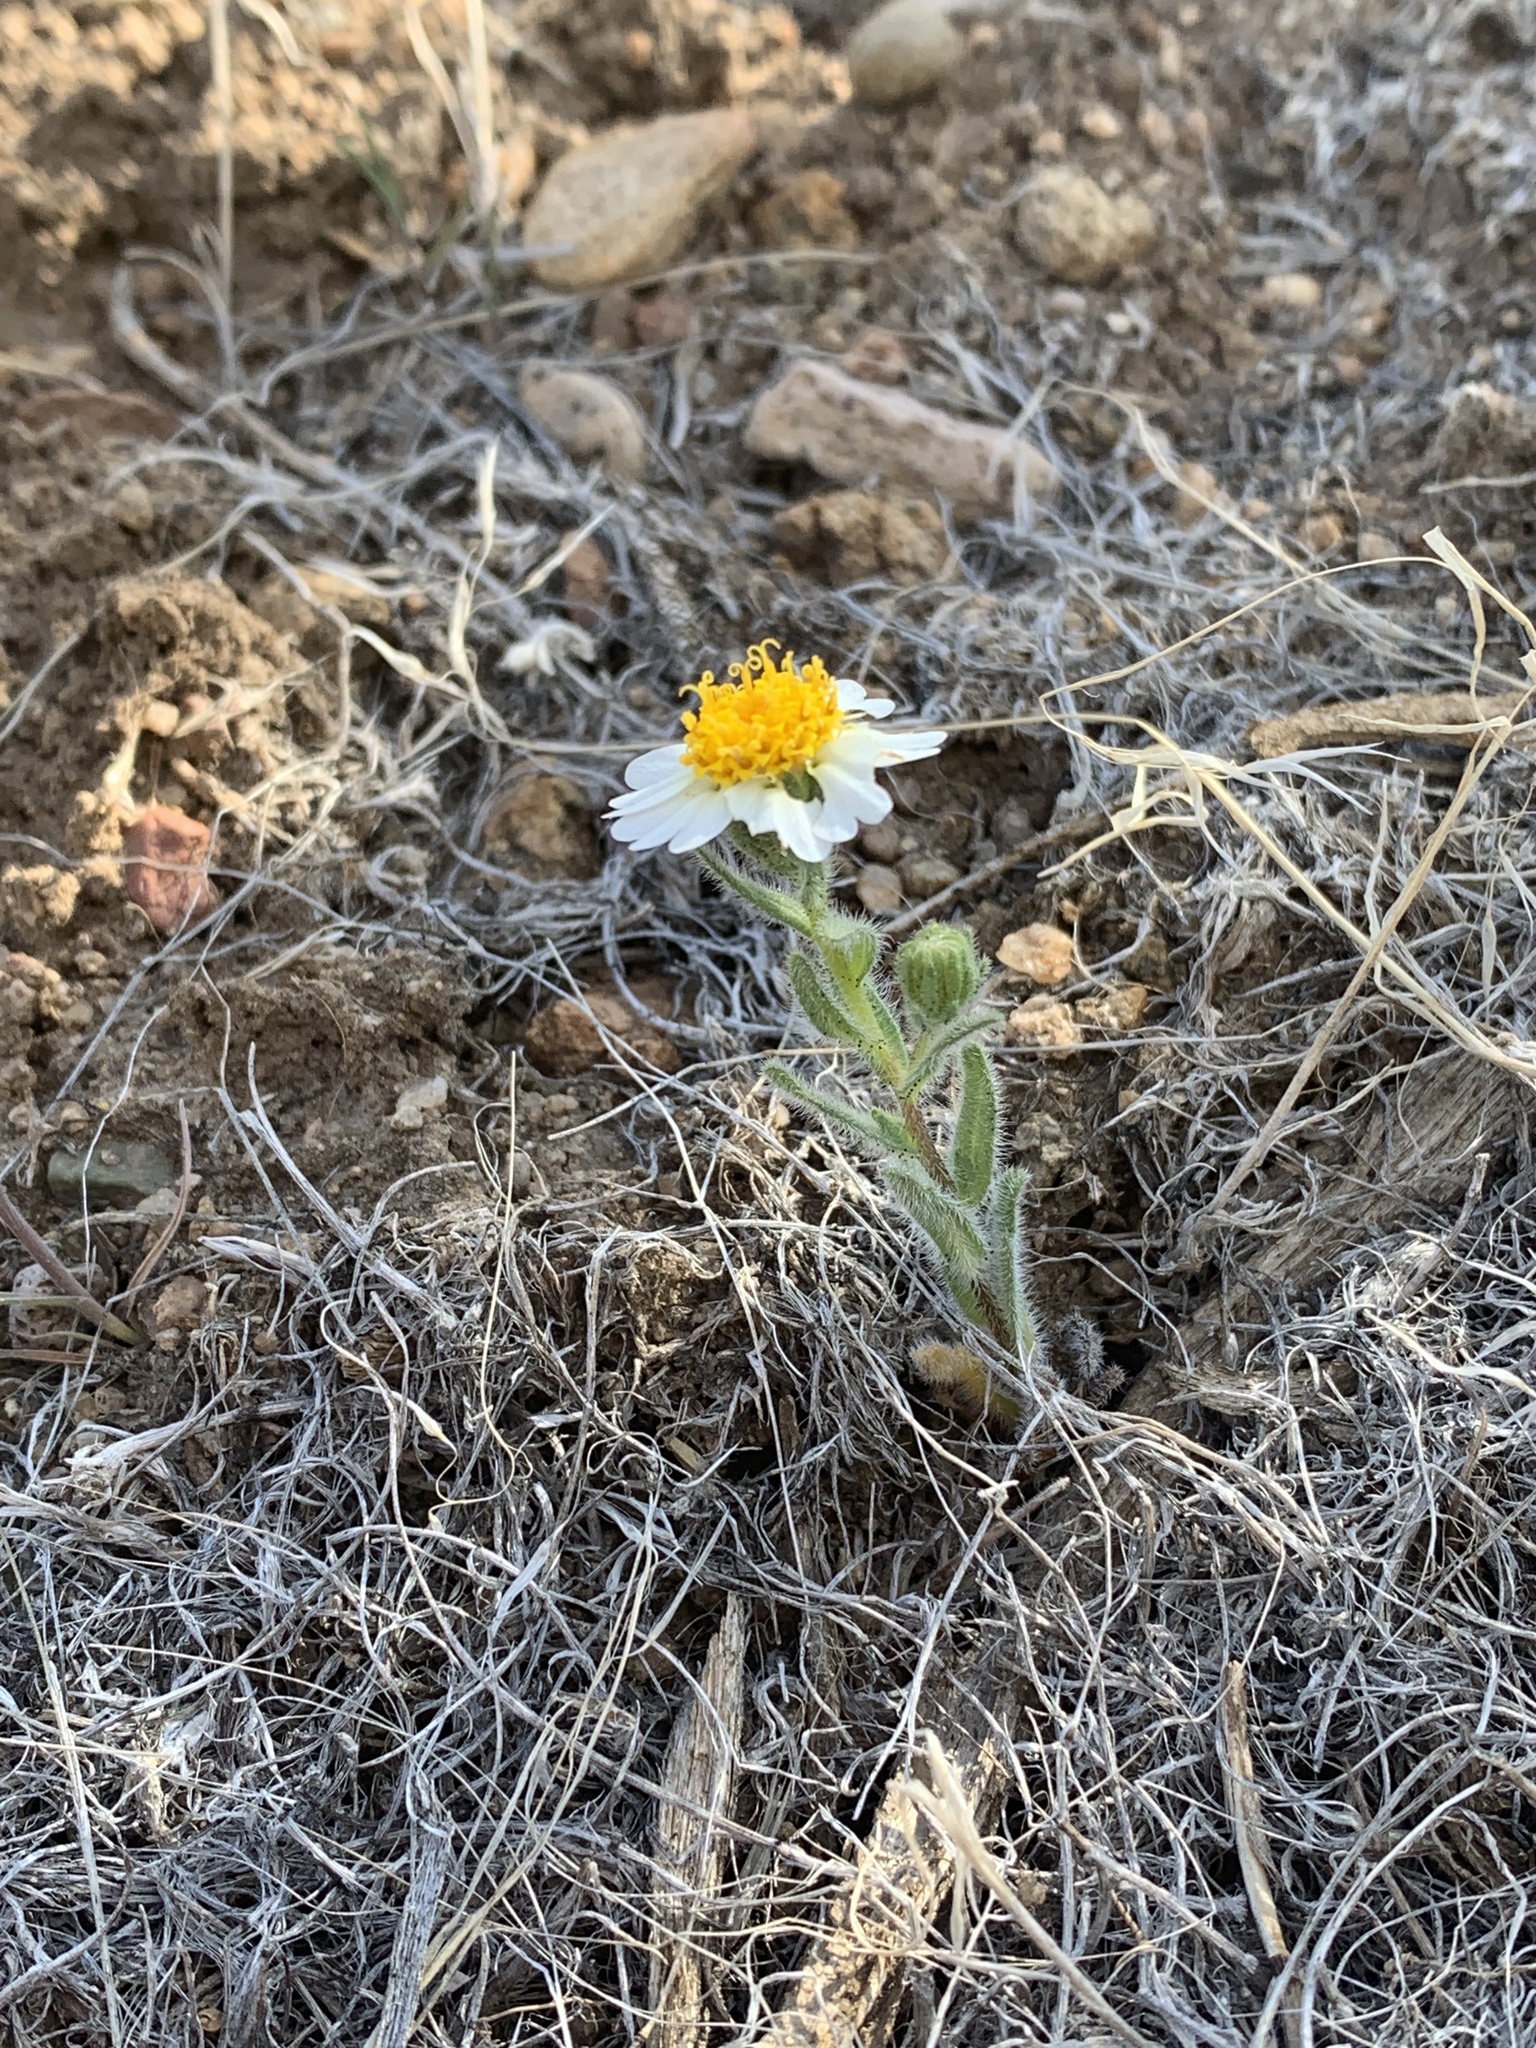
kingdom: Plantae
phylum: Tracheophyta
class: Magnoliopsida
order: Asterales
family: Asteraceae
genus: Layia
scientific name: Layia glandulosa
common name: White layia
